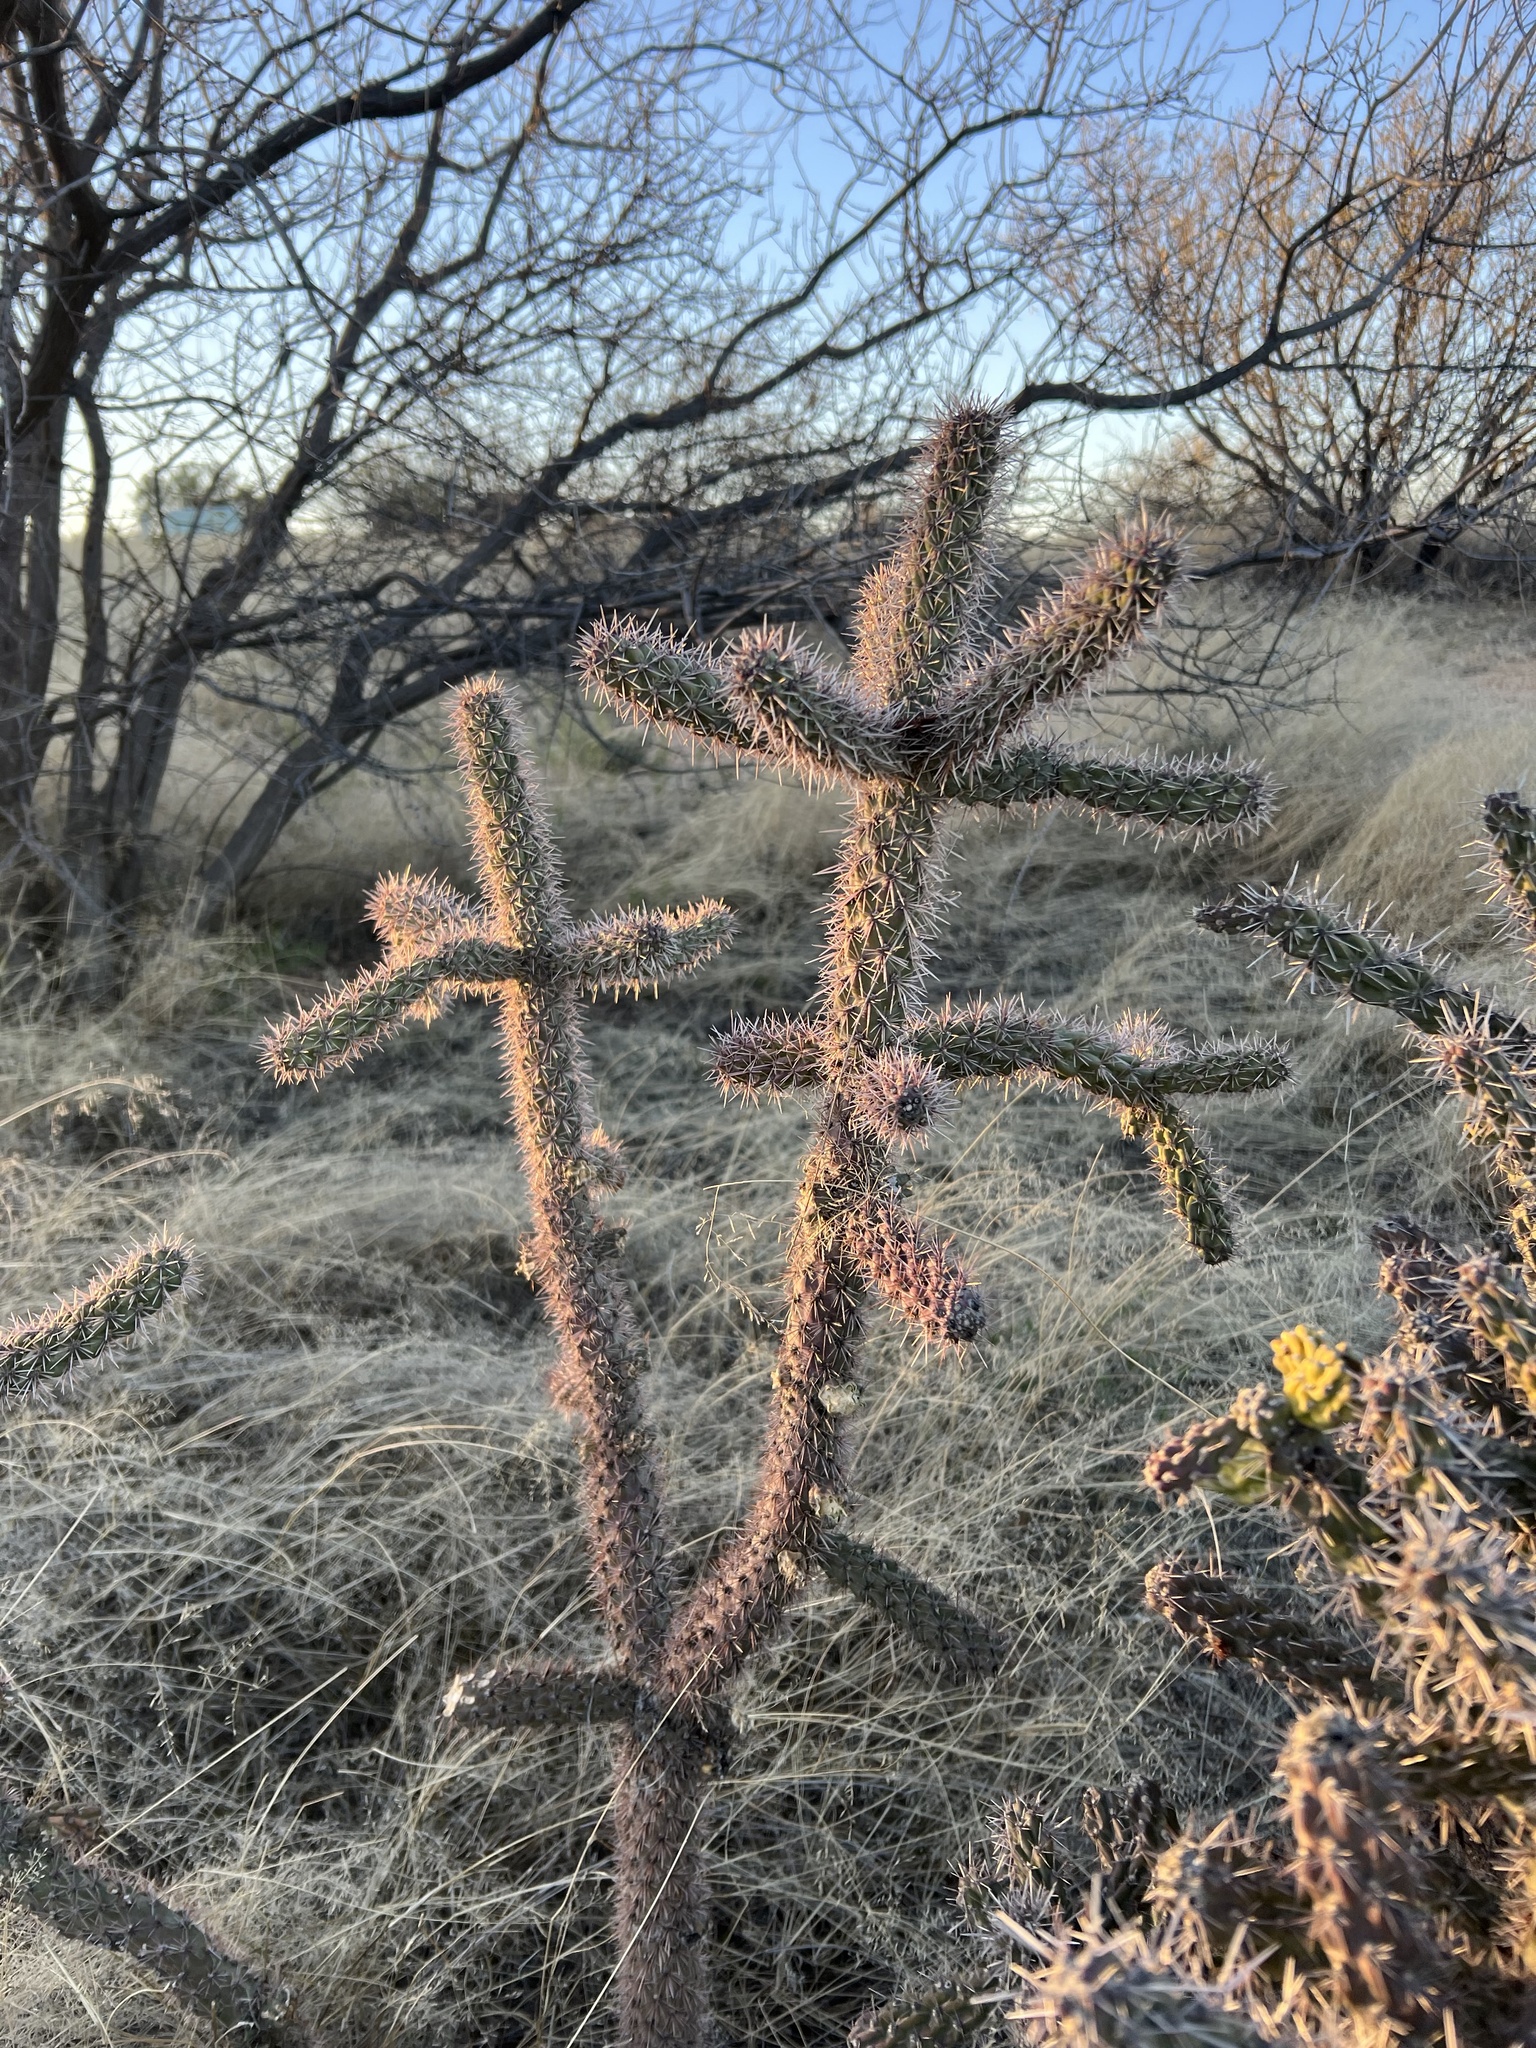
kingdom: Plantae
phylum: Tracheophyta
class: Magnoliopsida
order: Caryophyllales
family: Cactaceae
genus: Cylindropuntia
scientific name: Cylindropuntia imbricata
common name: Candelabrum cactus
